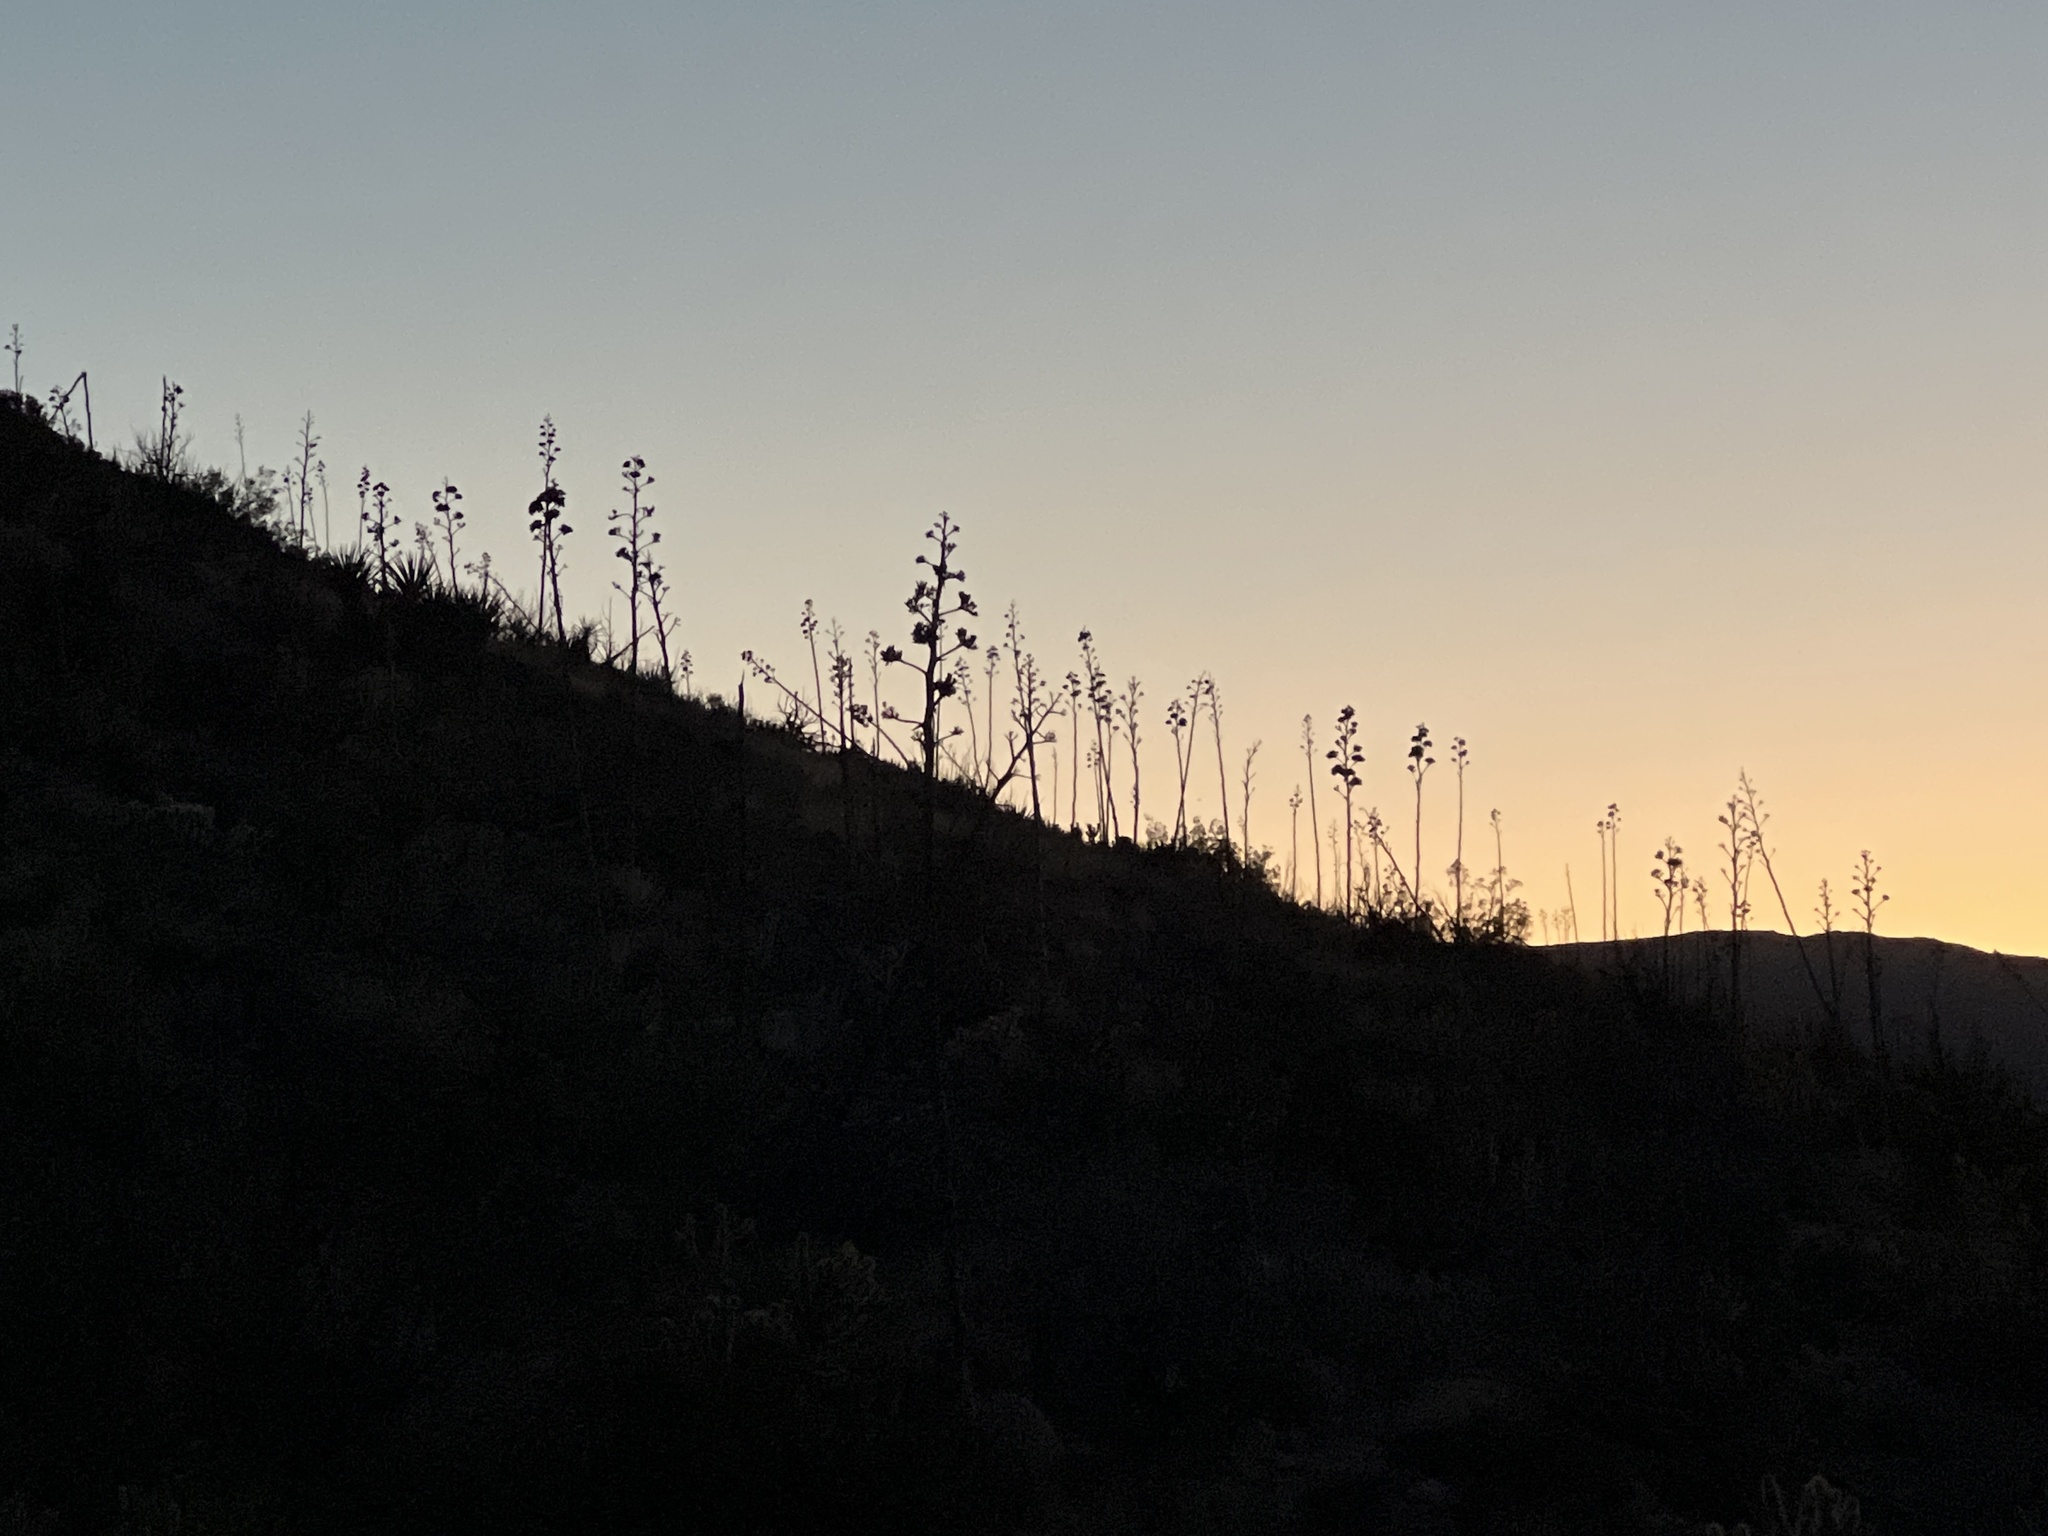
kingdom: Plantae
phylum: Tracheophyta
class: Liliopsida
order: Asparagales
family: Asparagaceae
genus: Agave
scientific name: Agave deserti
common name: Desert agave
